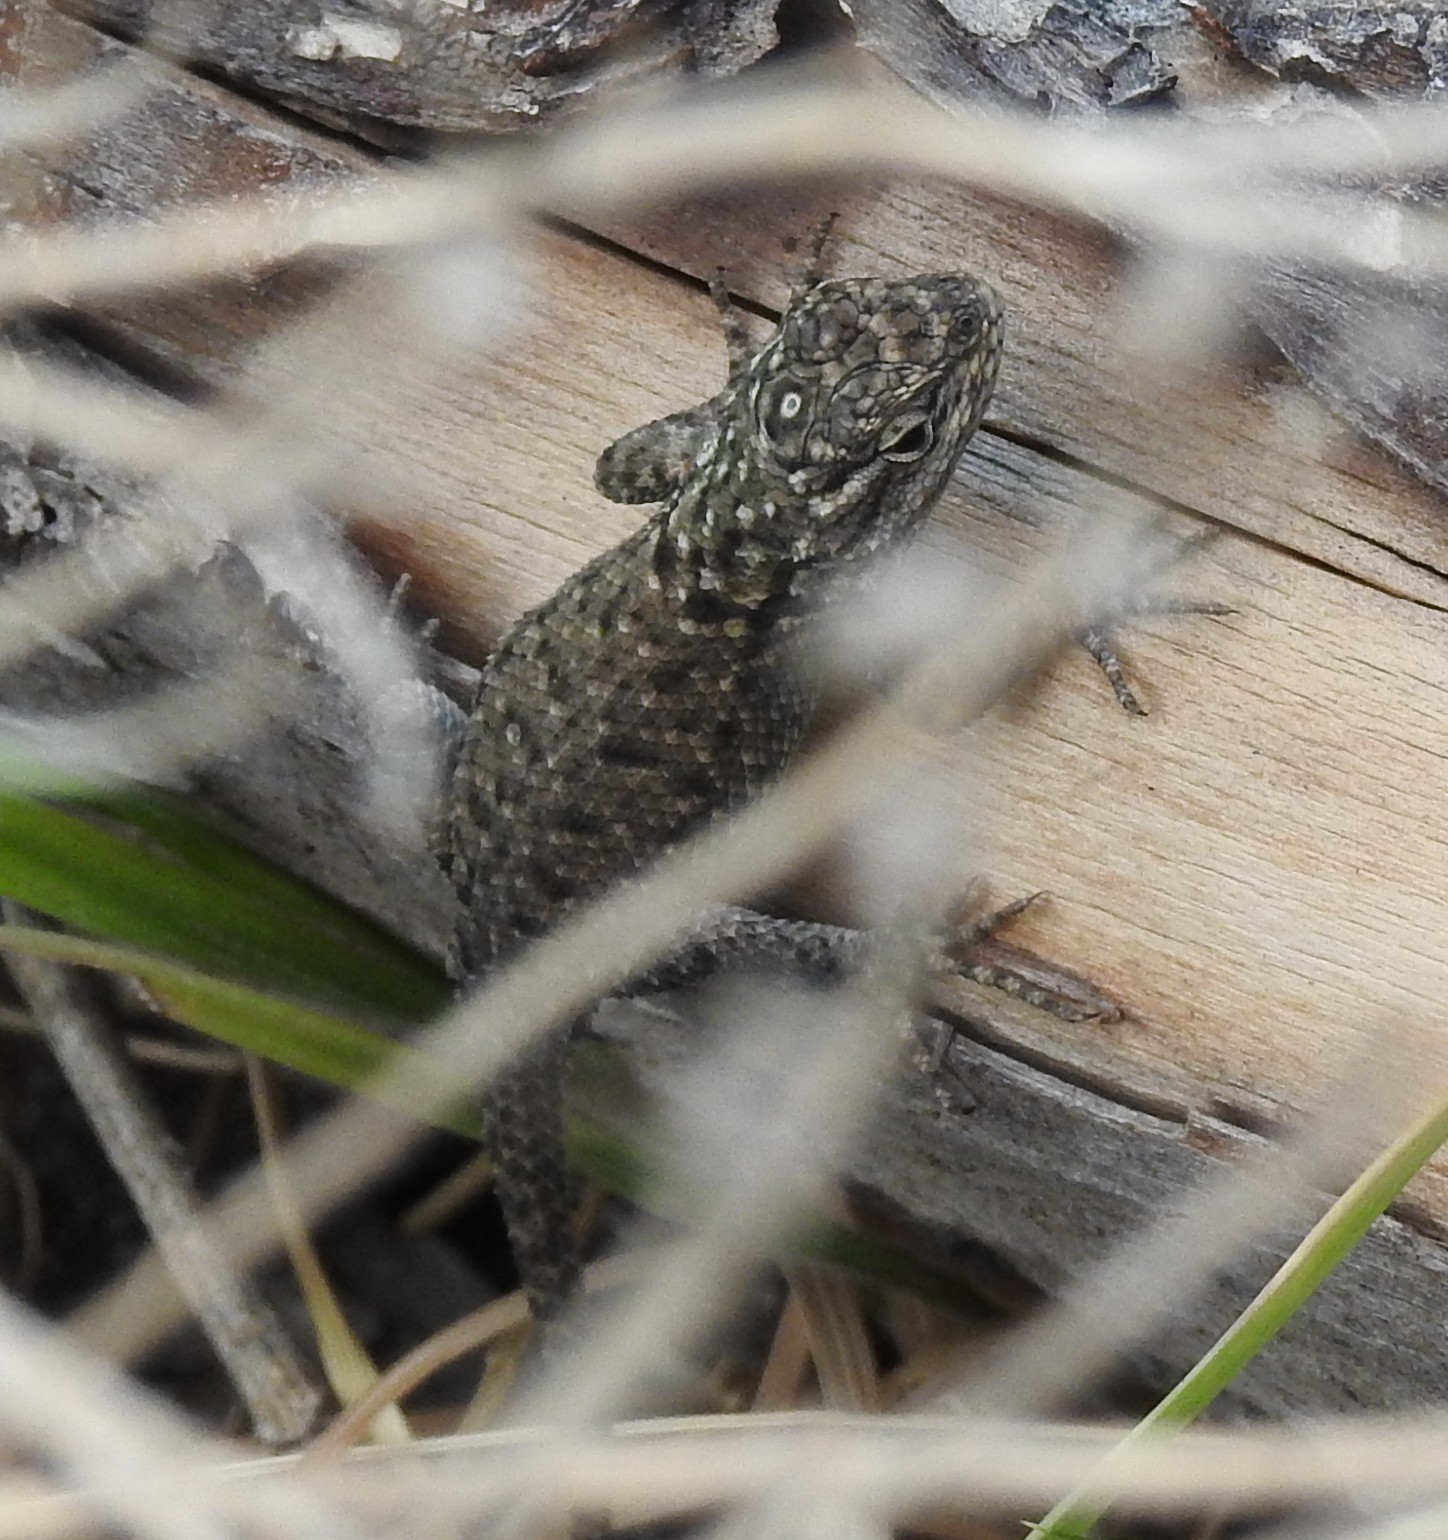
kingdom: Animalia
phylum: Chordata
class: Squamata
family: Phrynosomatidae
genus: Sceloporus
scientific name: Sceloporus jarrovii
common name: Yarrow's spiny lizard
